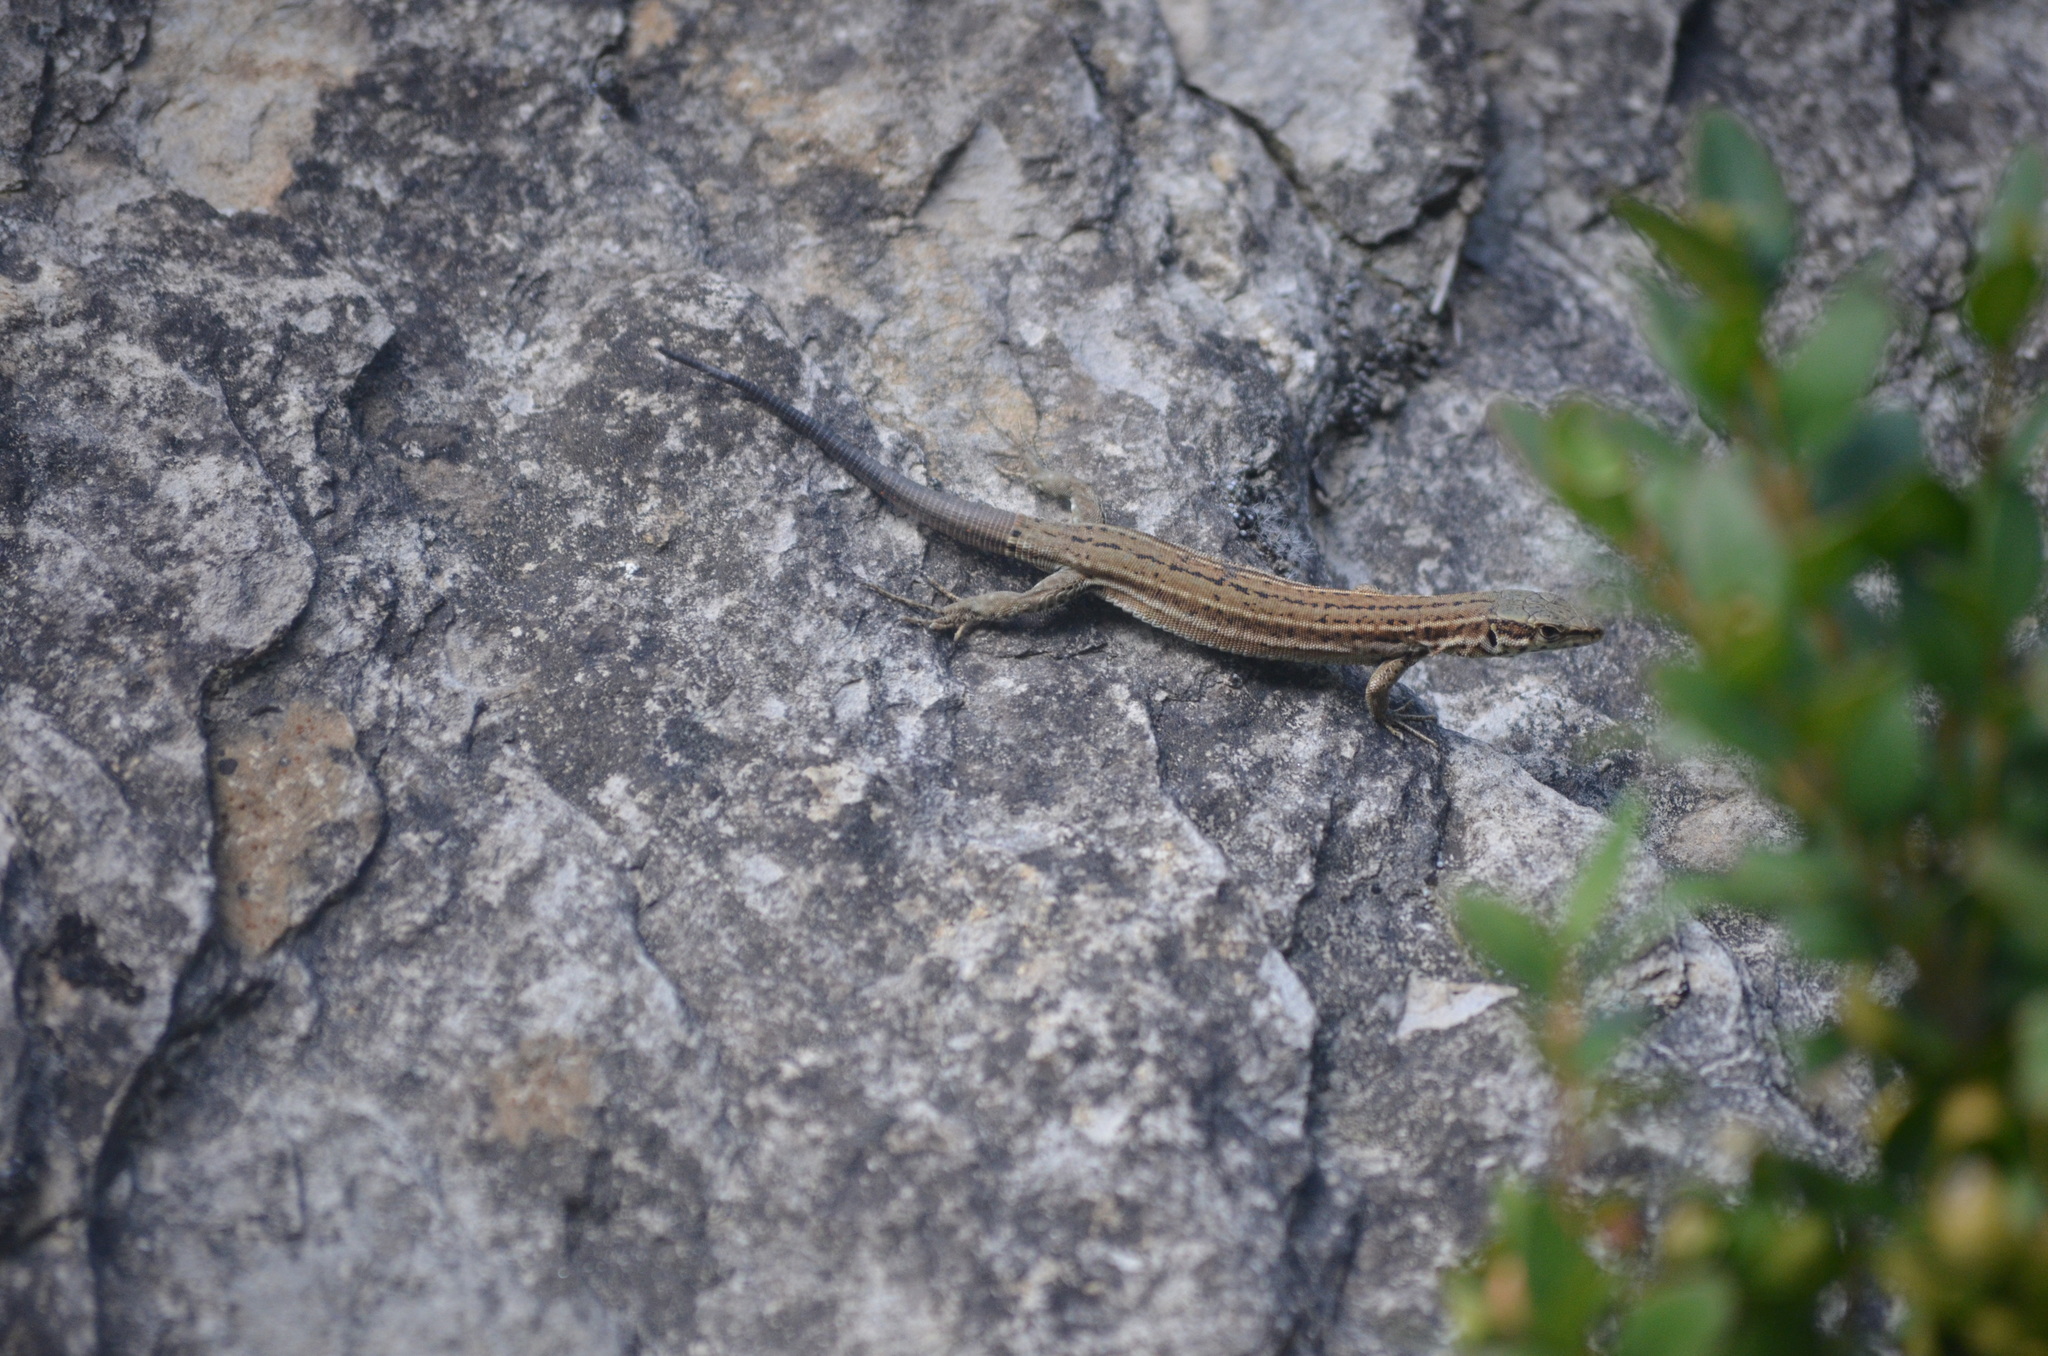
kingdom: Animalia
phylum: Chordata
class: Squamata
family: Lacertidae
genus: Podarcis
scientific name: Podarcis liolepis
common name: Catalonian wall lizard
